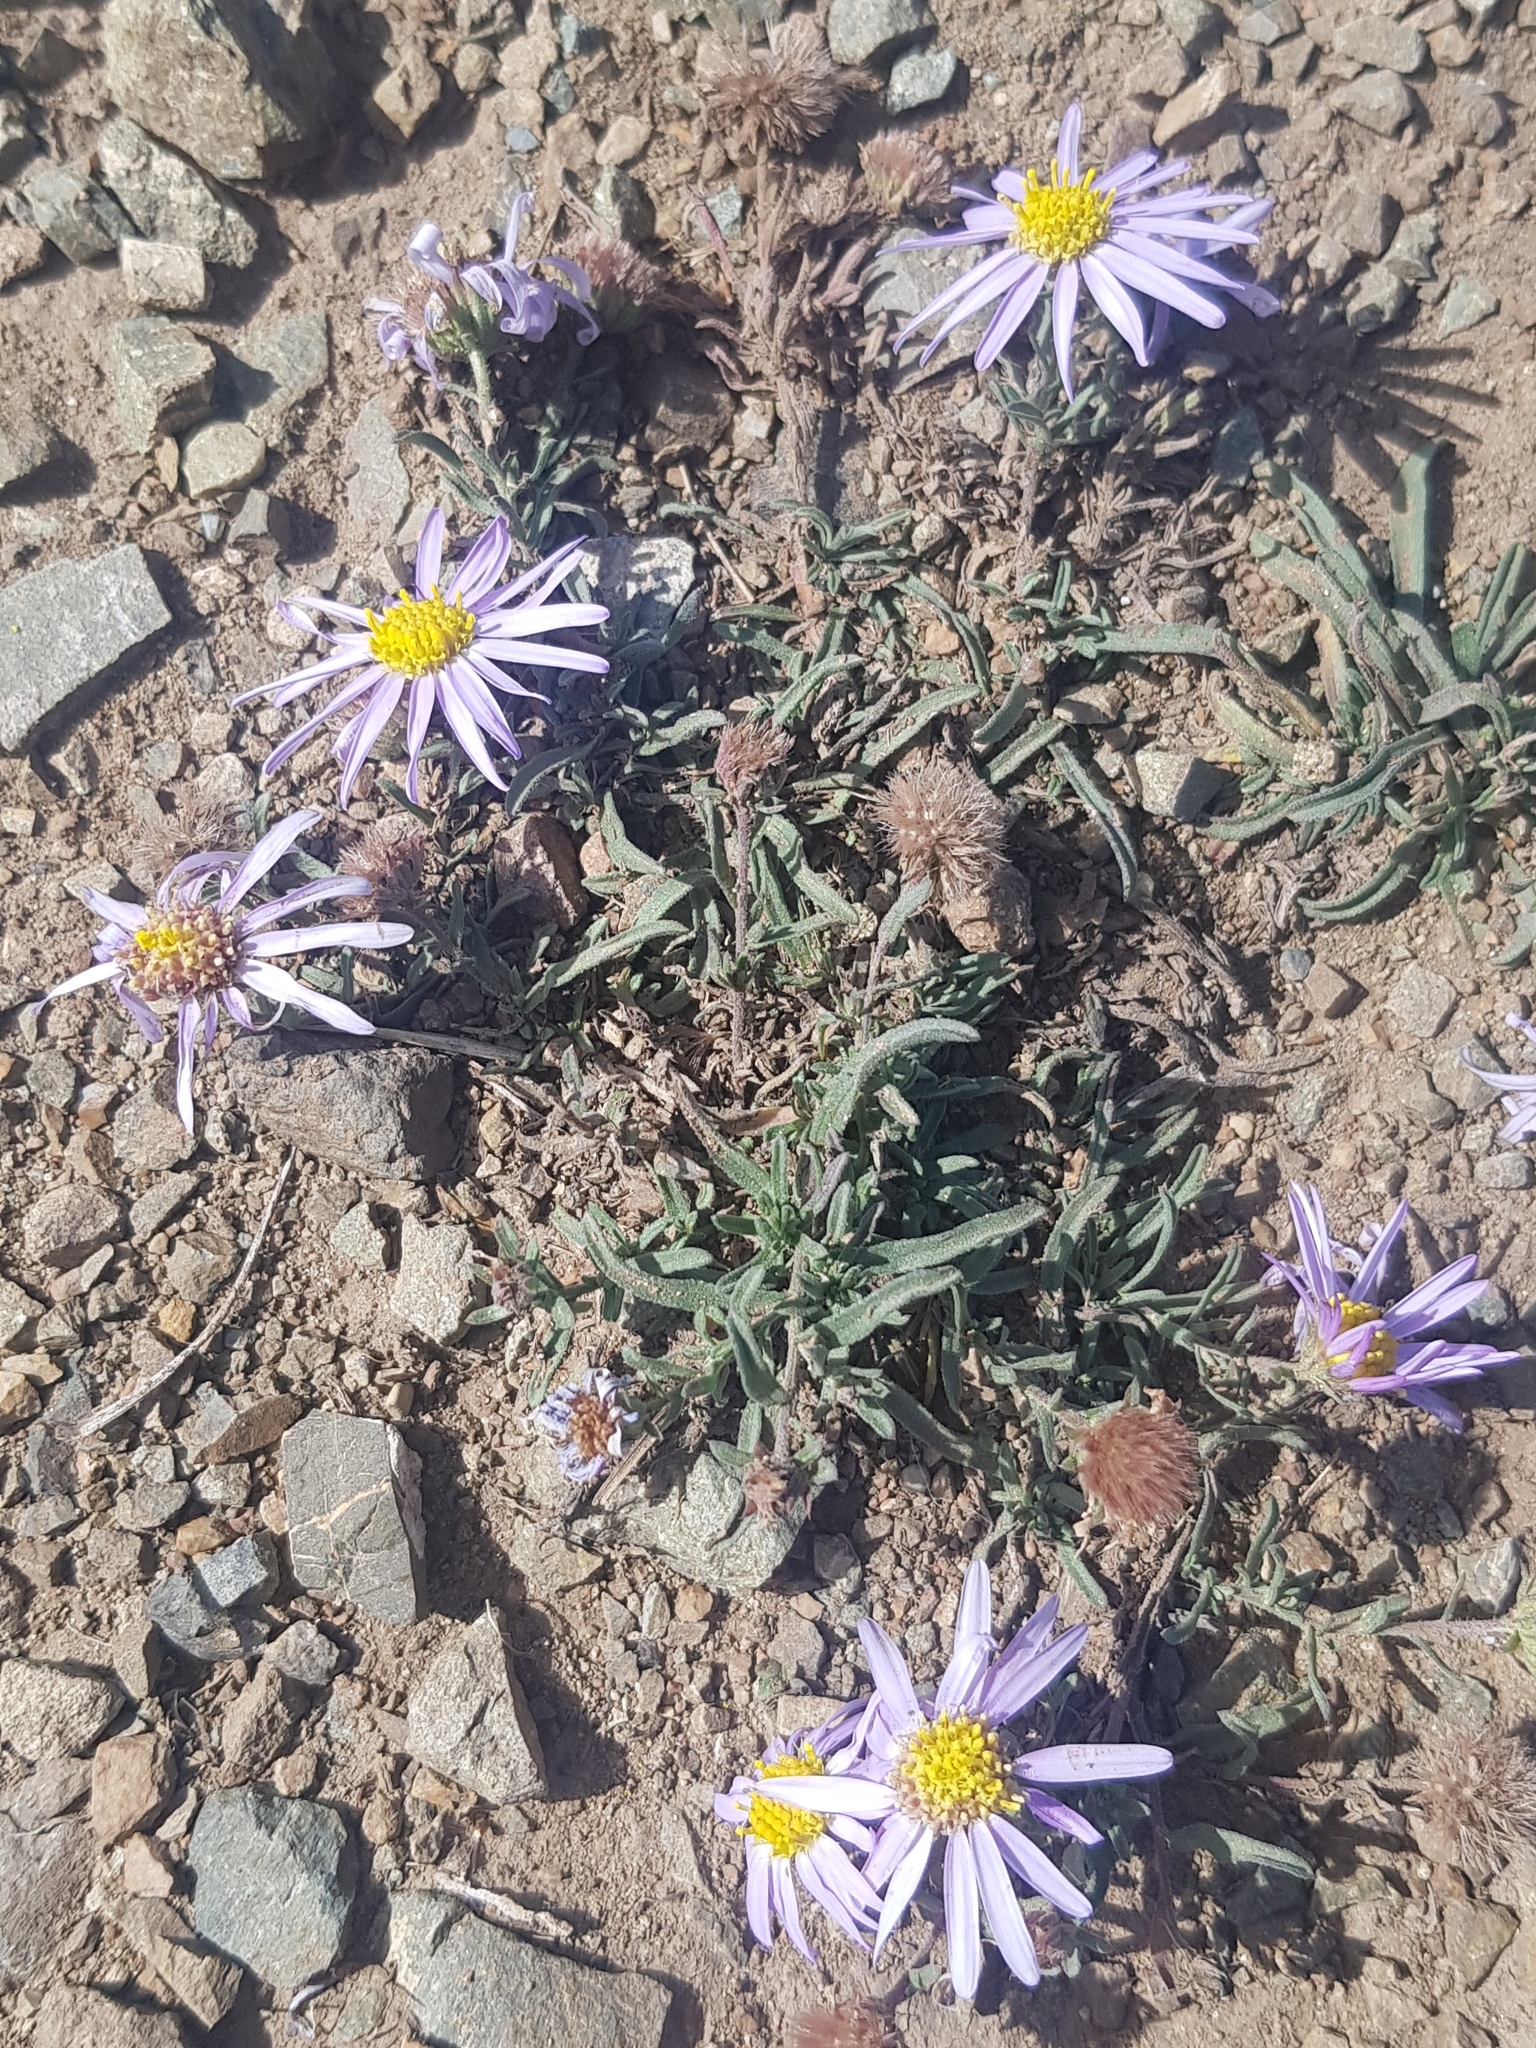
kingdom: Plantae
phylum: Tracheophyta
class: Magnoliopsida
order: Asterales
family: Asteraceae
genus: Heteropappus
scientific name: Heteropappus altaicus
